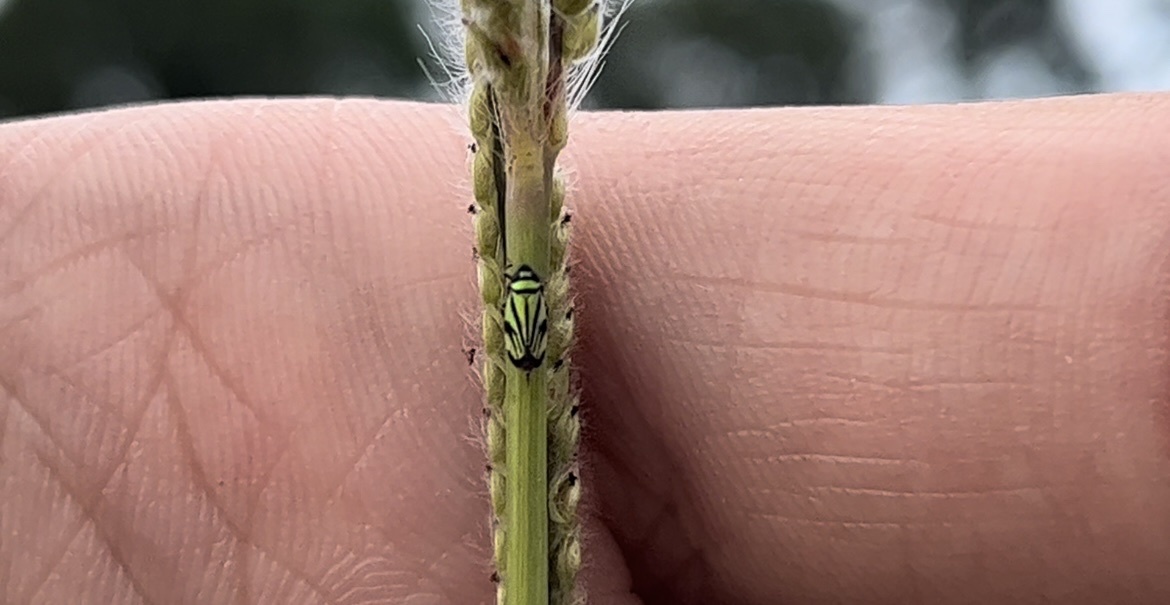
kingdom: Animalia
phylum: Arthropoda
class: Insecta
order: Hemiptera
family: Cicadellidae
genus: Stirellus
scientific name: Stirellus bicolor
